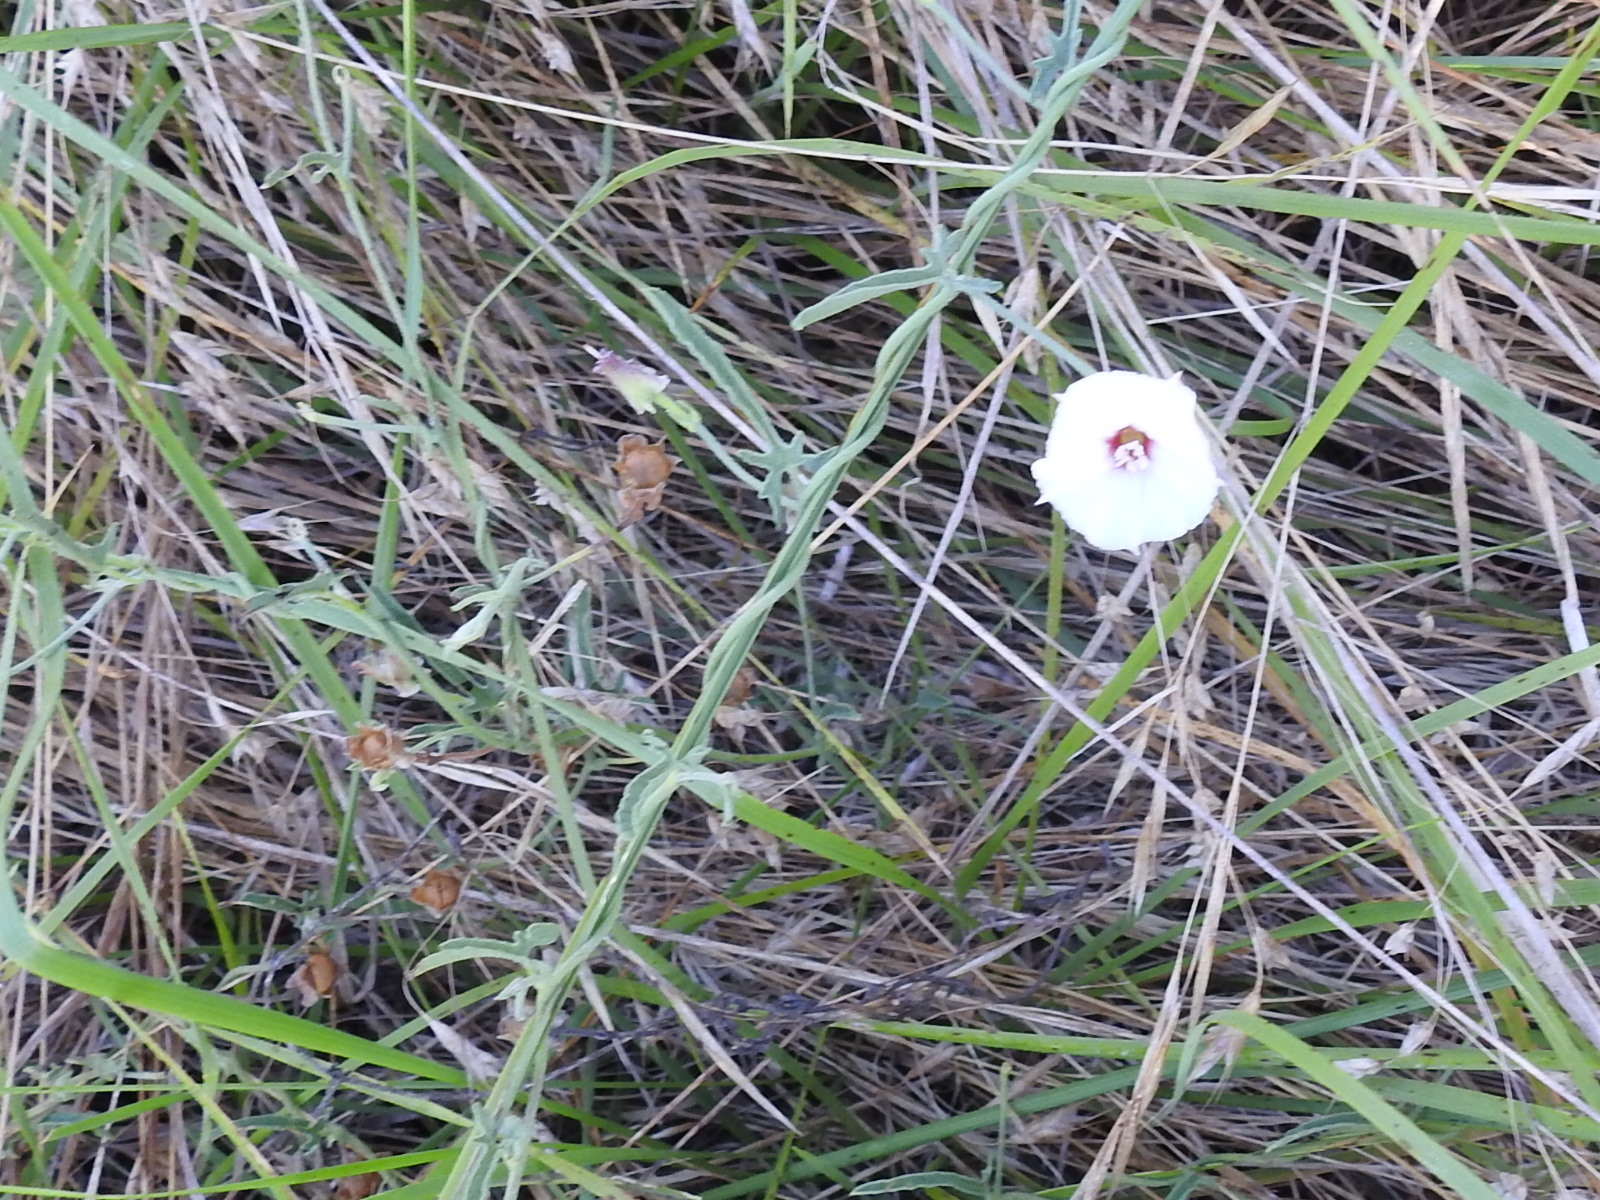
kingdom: Plantae
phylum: Tracheophyta
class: Magnoliopsida
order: Solanales
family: Convolvulaceae
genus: Convolvulus
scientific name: Convolvulus equitans
